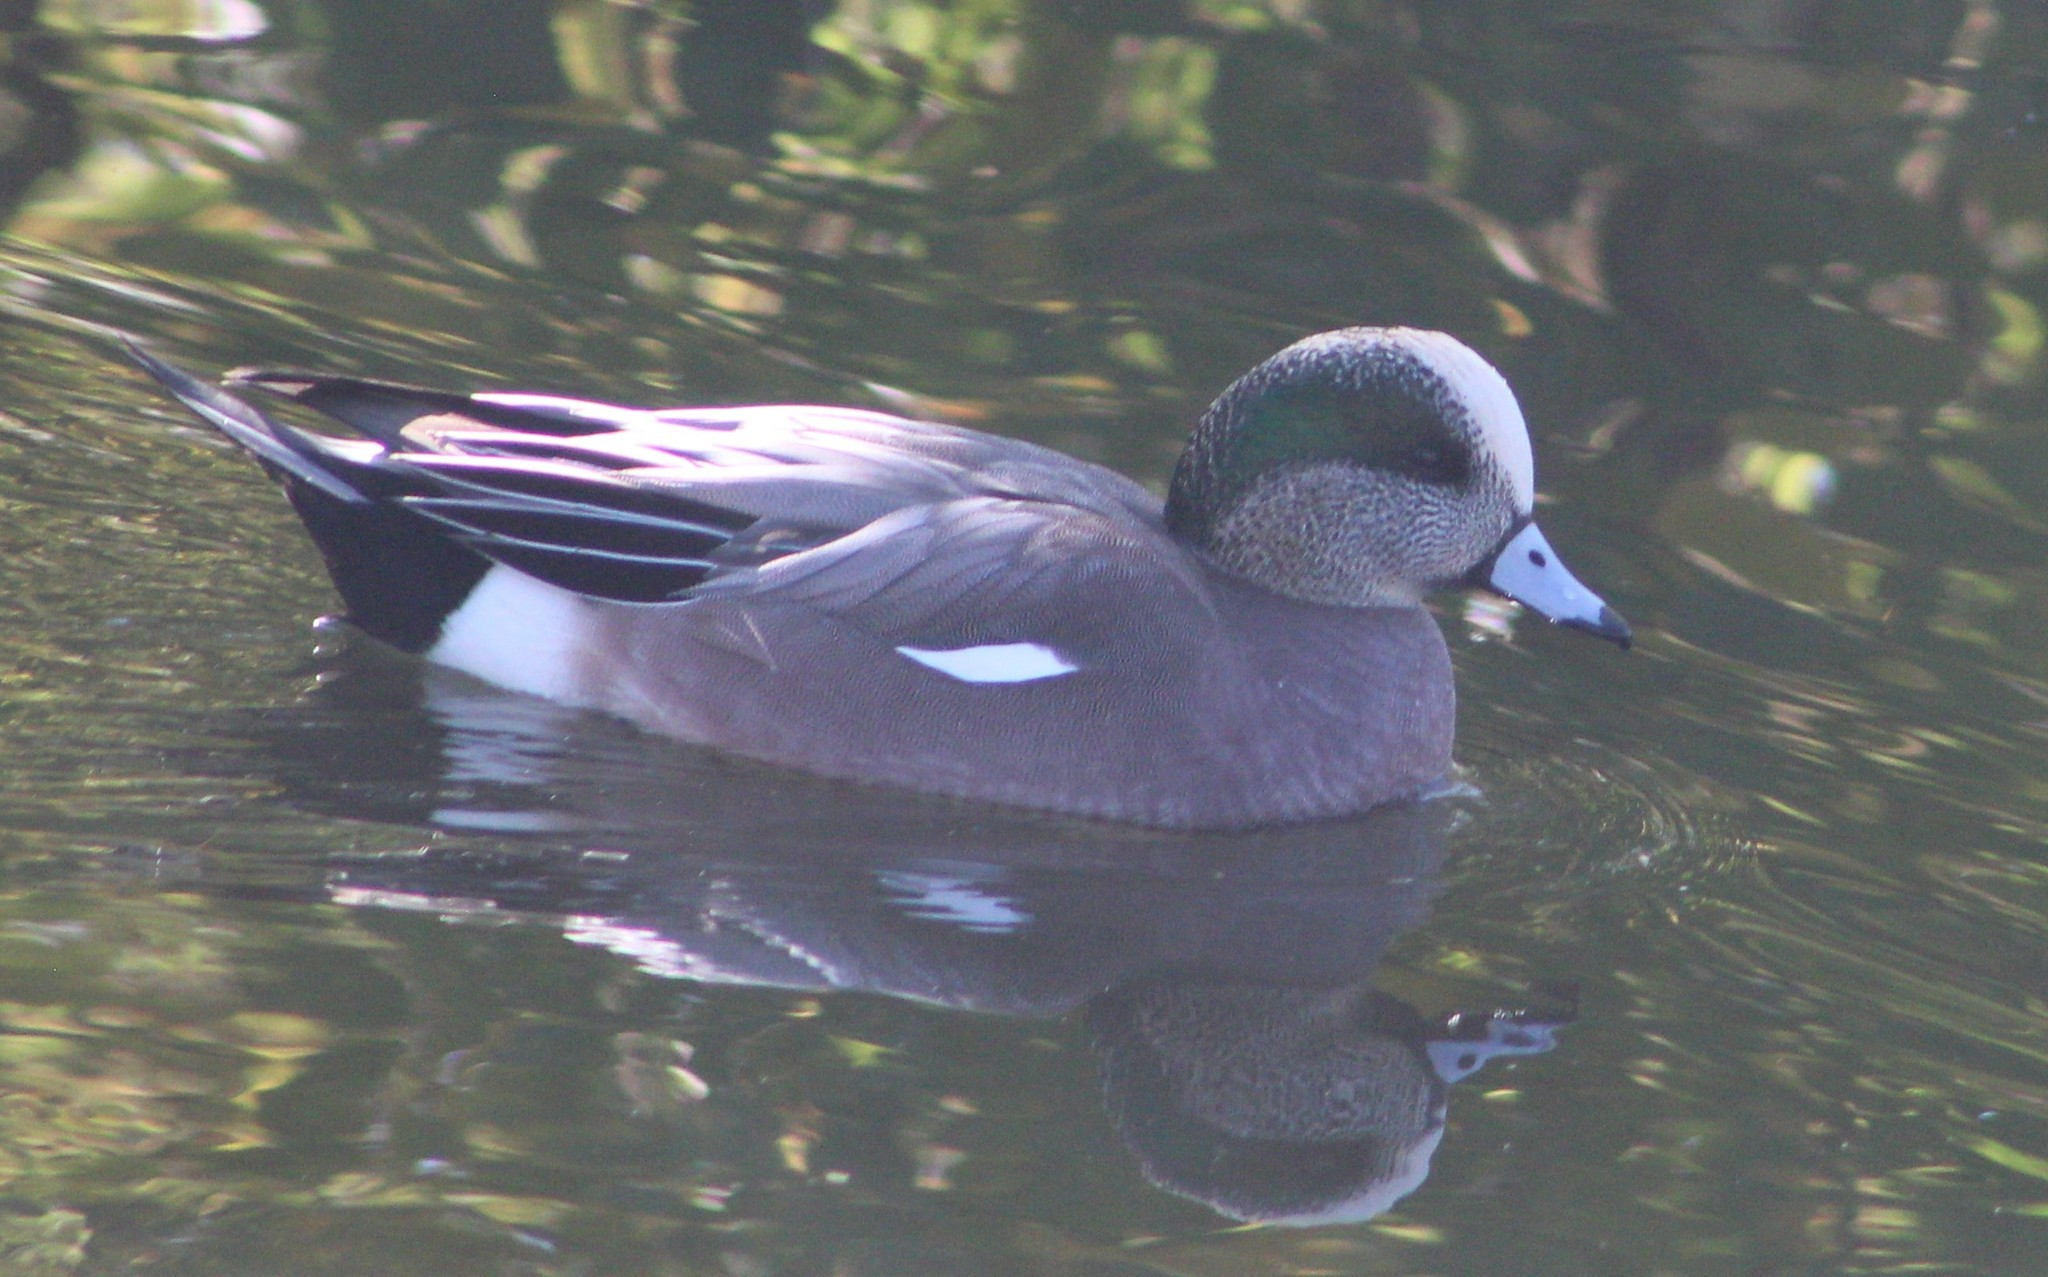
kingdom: Animalia
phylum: Chordata
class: Aves
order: Anseriformes
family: Anatidae
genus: Mareca
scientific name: Mareca americana
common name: American wigeon
